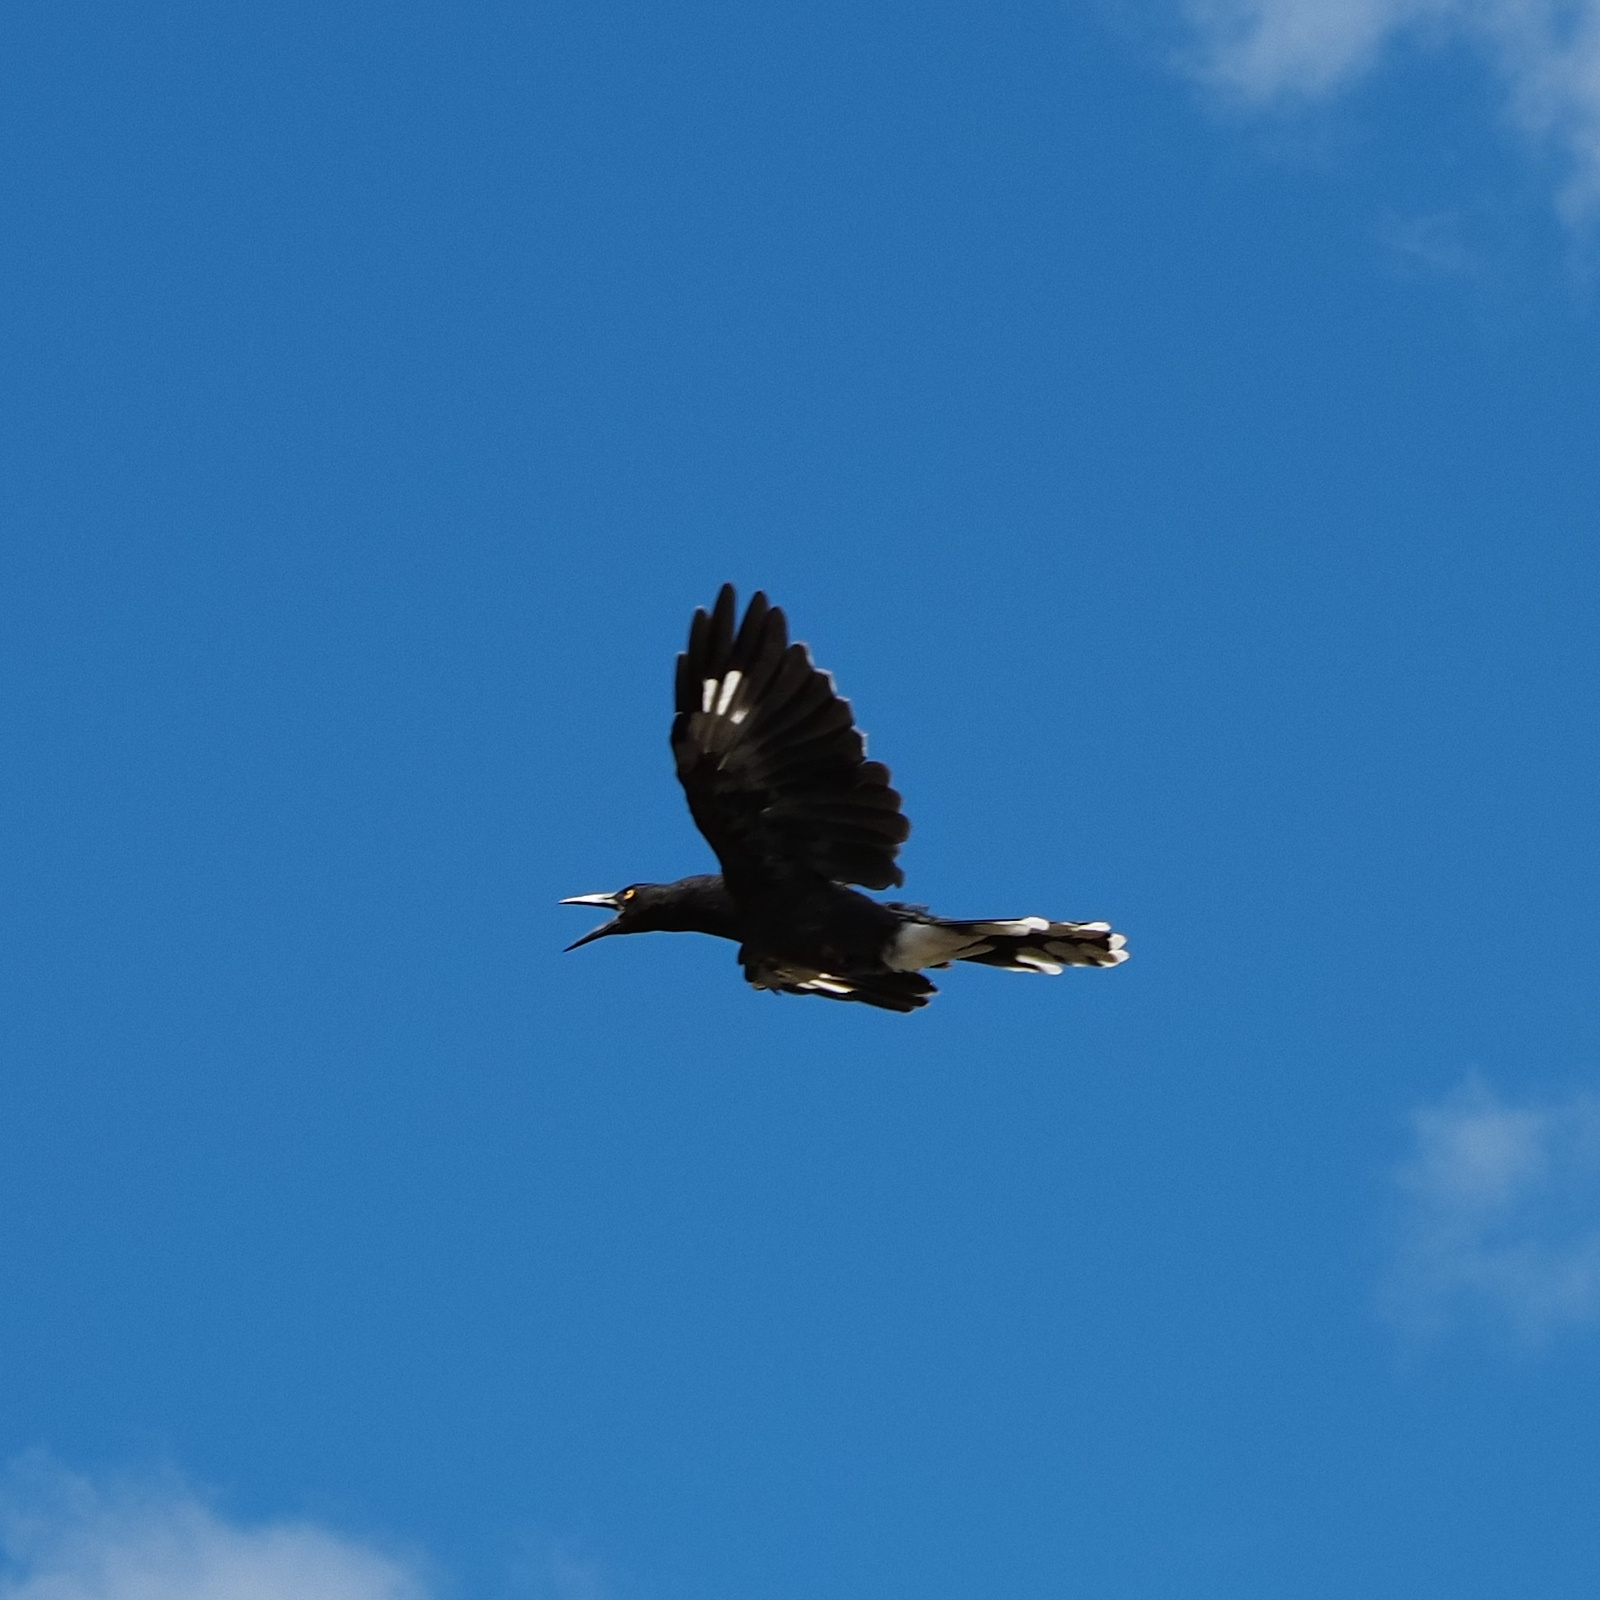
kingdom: Animalia
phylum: Chordata
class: Aves
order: Passeriformes
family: Cracticidae
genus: Strepera
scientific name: Strepera versicolor
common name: Grey currawong
